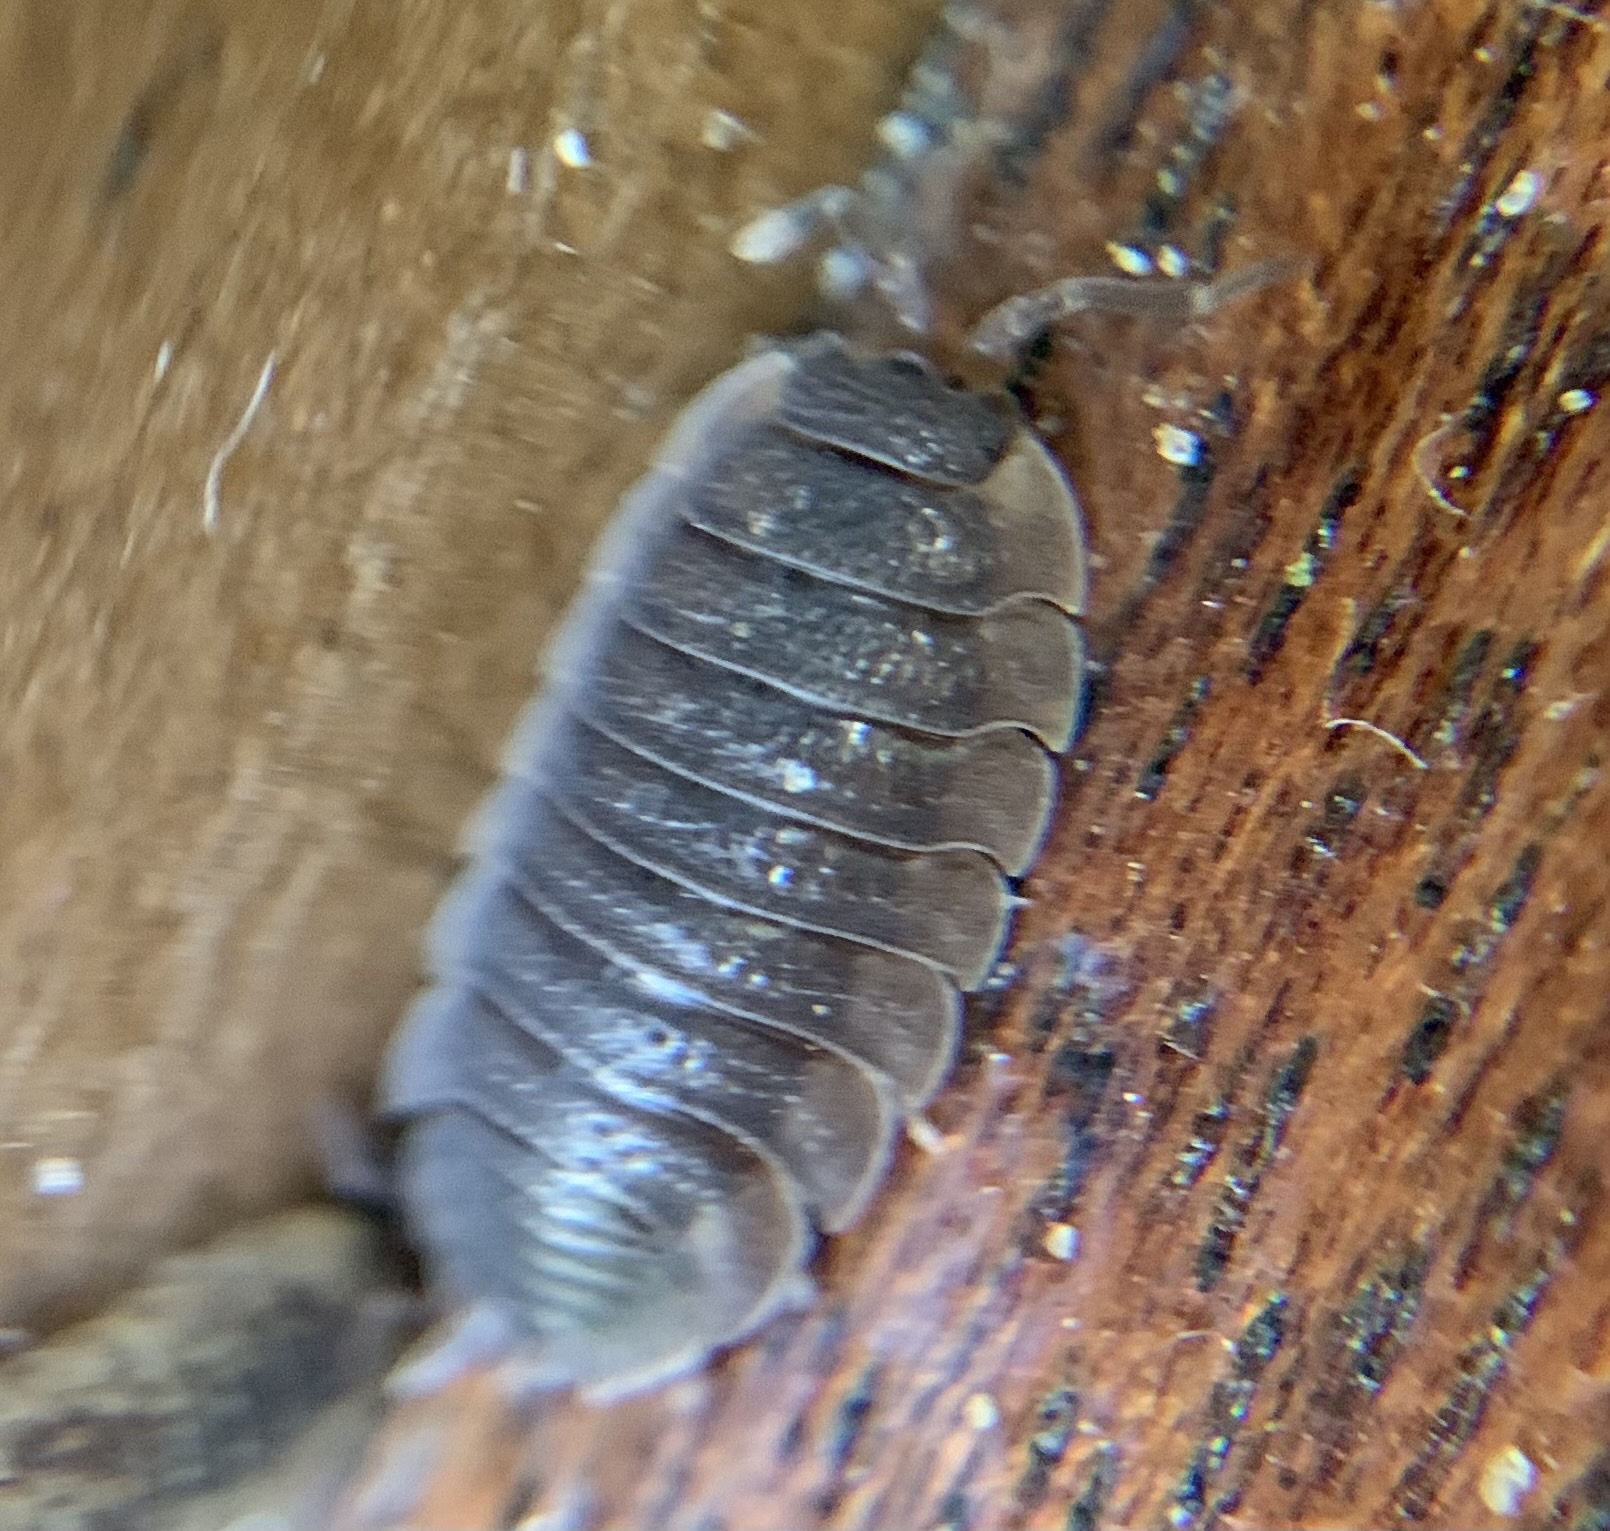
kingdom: Animalia
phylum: Arthropoda
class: Malacostraca
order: Isopoda
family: Porcellionidae
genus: Porcellio
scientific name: Porcellio scaber
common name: Common rough woodlouse
